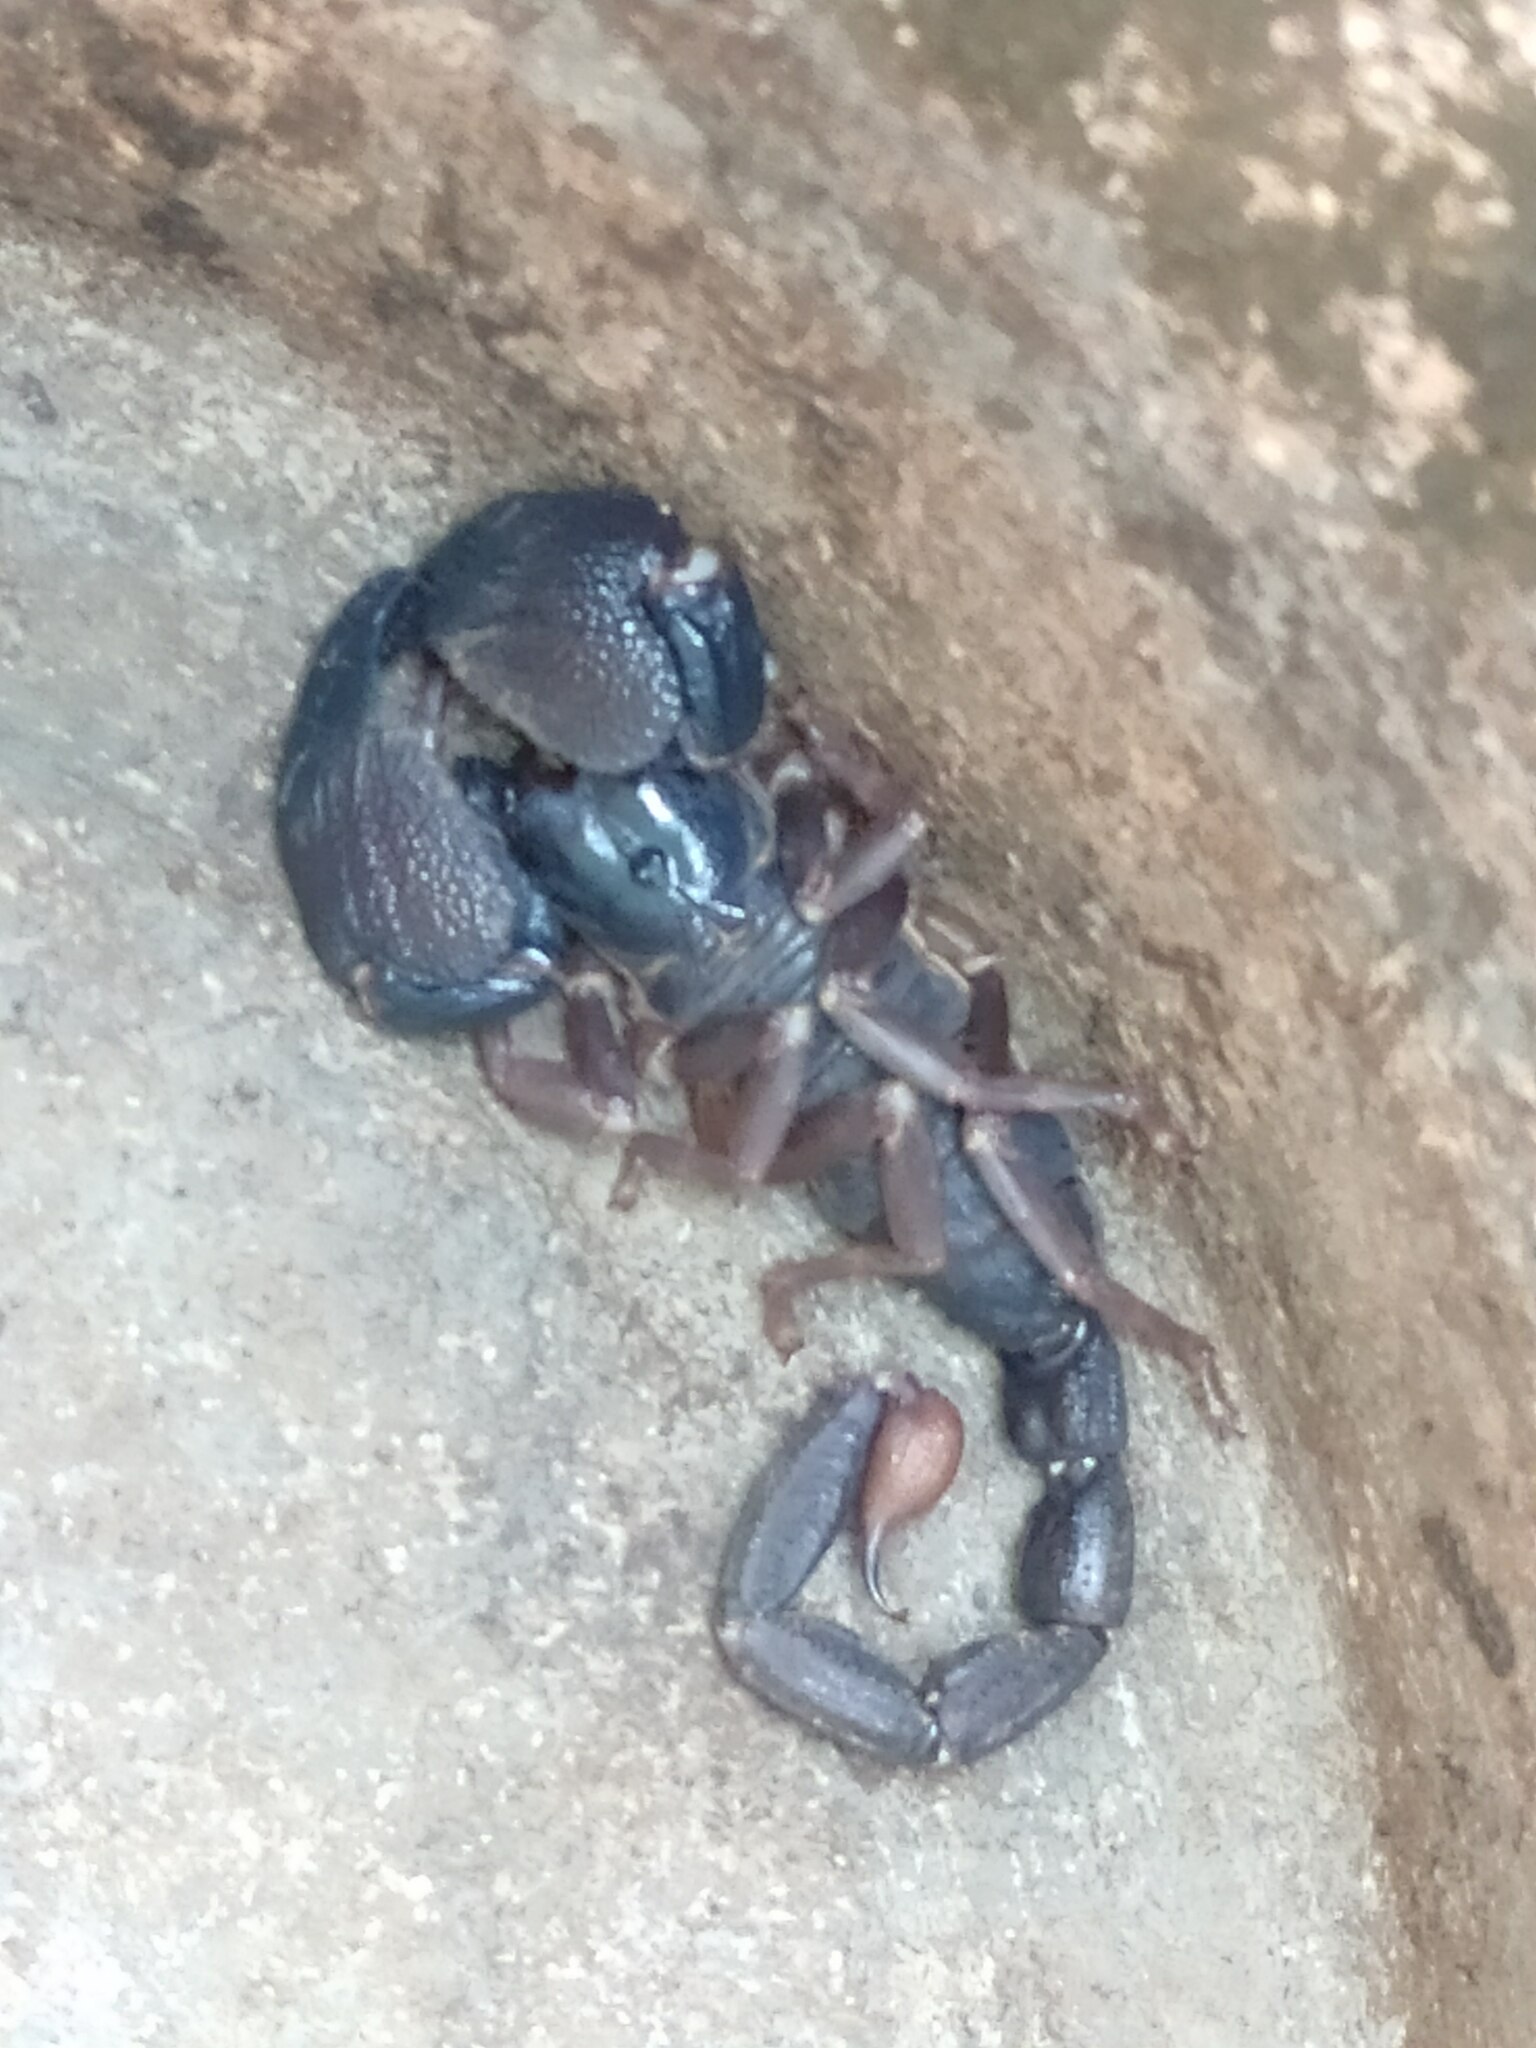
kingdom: Animalia
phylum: Arthropoda
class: Arachnida
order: Scorpiones
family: Scorpionidae
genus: Gigantometrus
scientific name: Gigantometrus swammerdami
